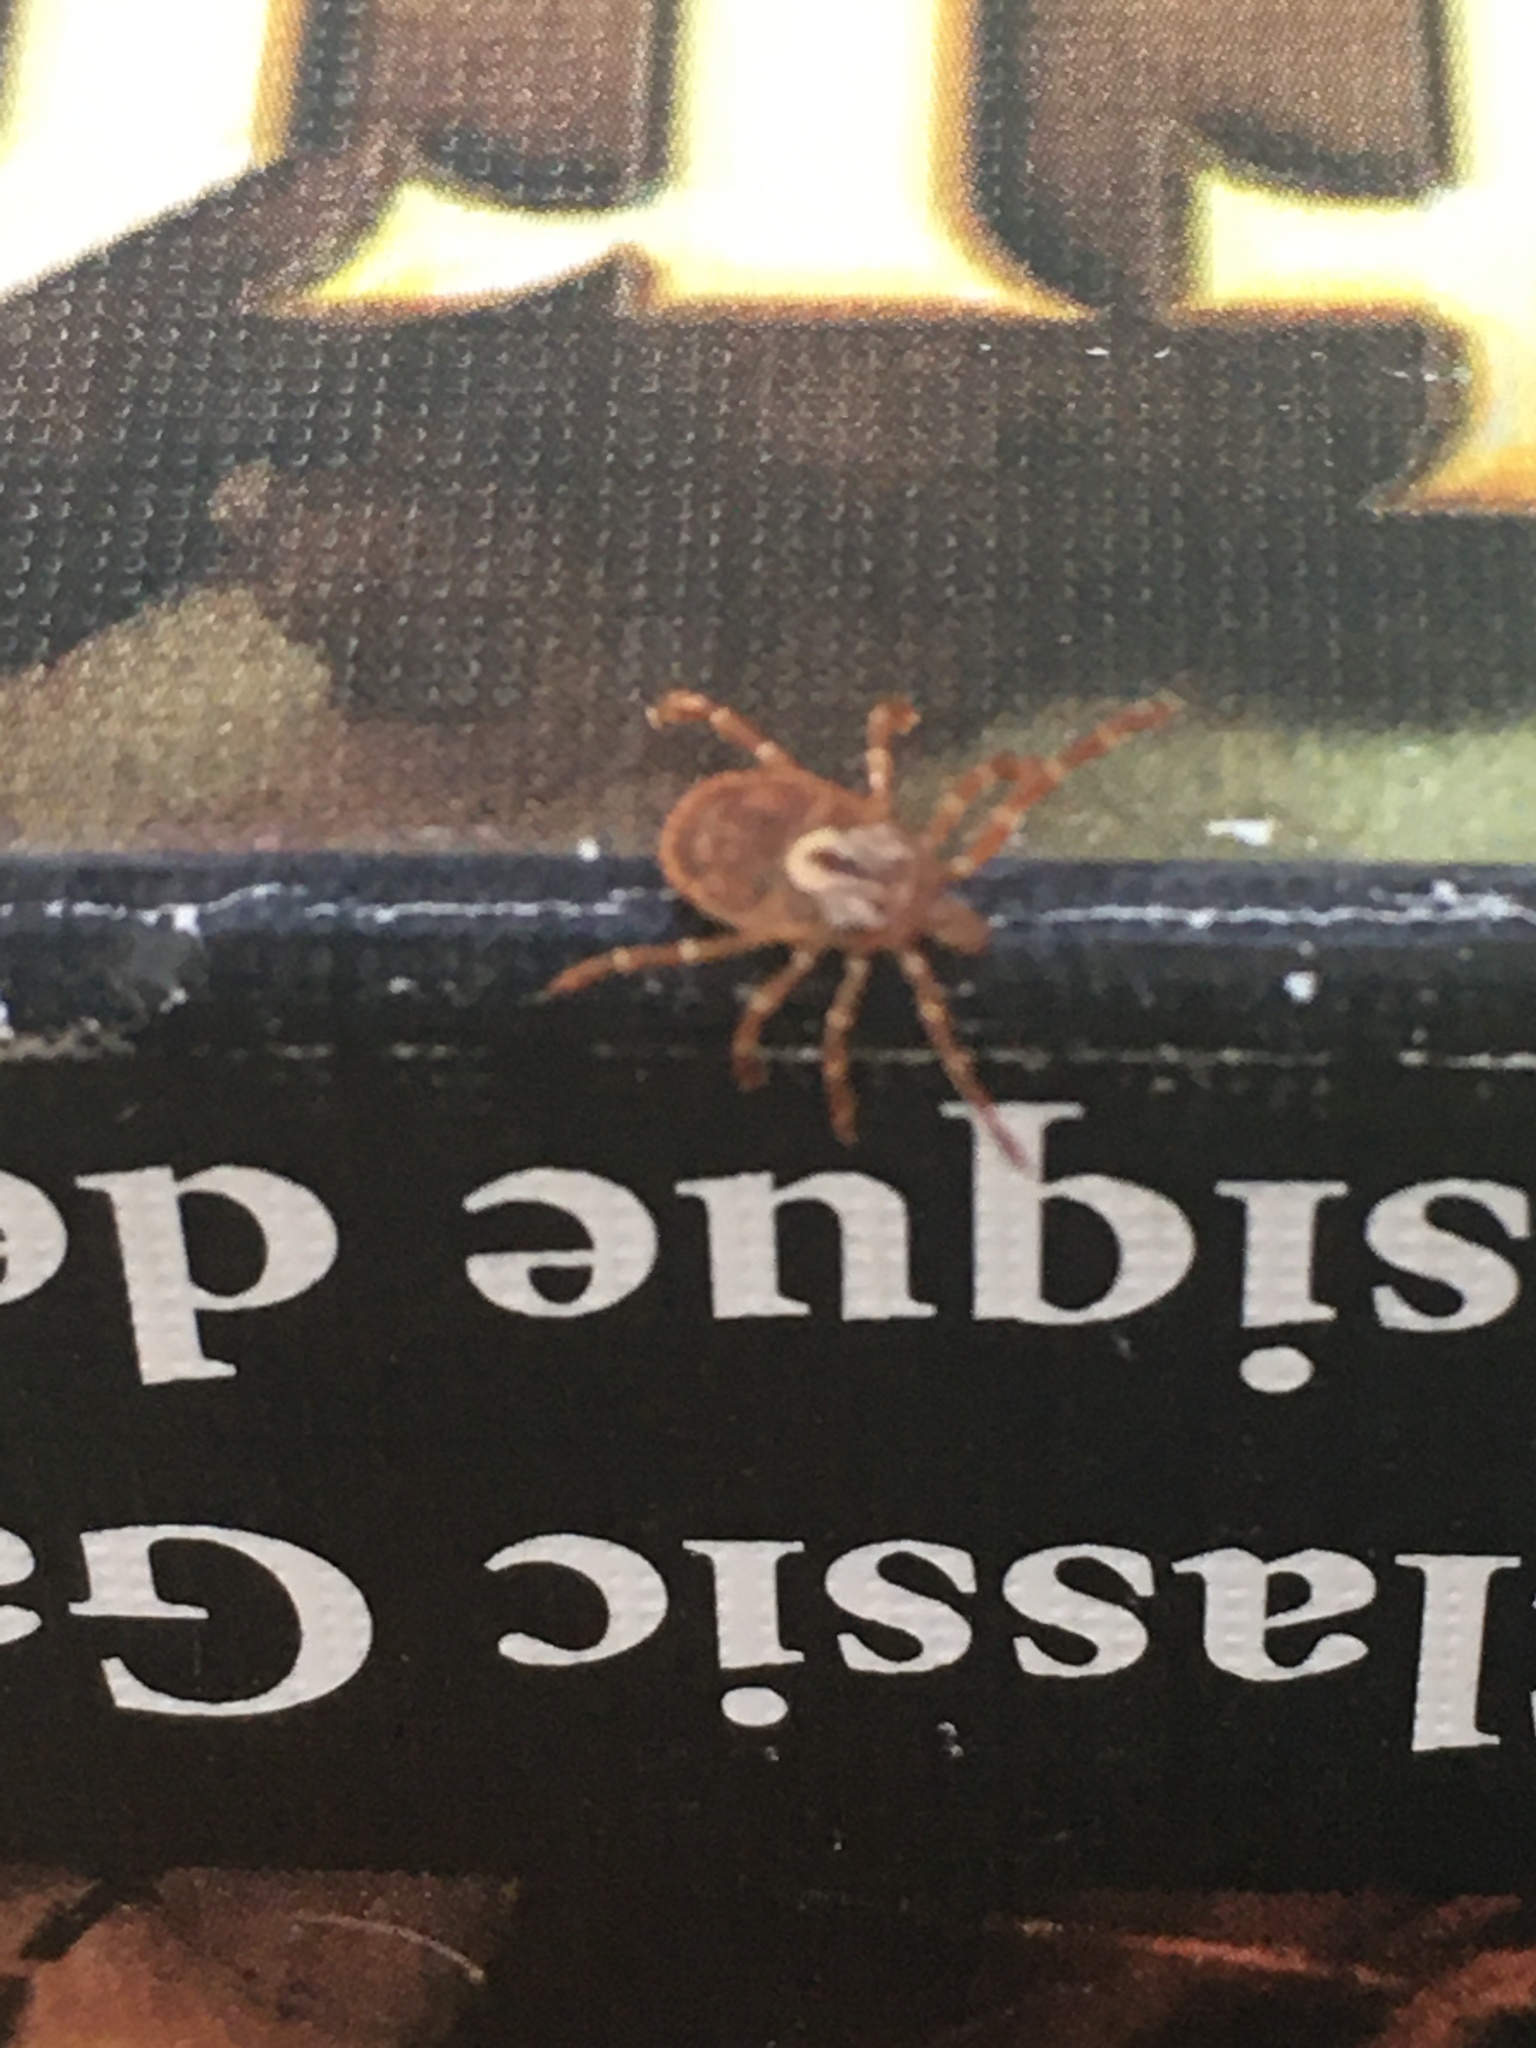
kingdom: Animalia
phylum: Arthropoda
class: Arachnida
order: Ixodida
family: Ixodidae
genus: Amblyomma
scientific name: Amblyomma maculatum
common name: Gulf coast tick
